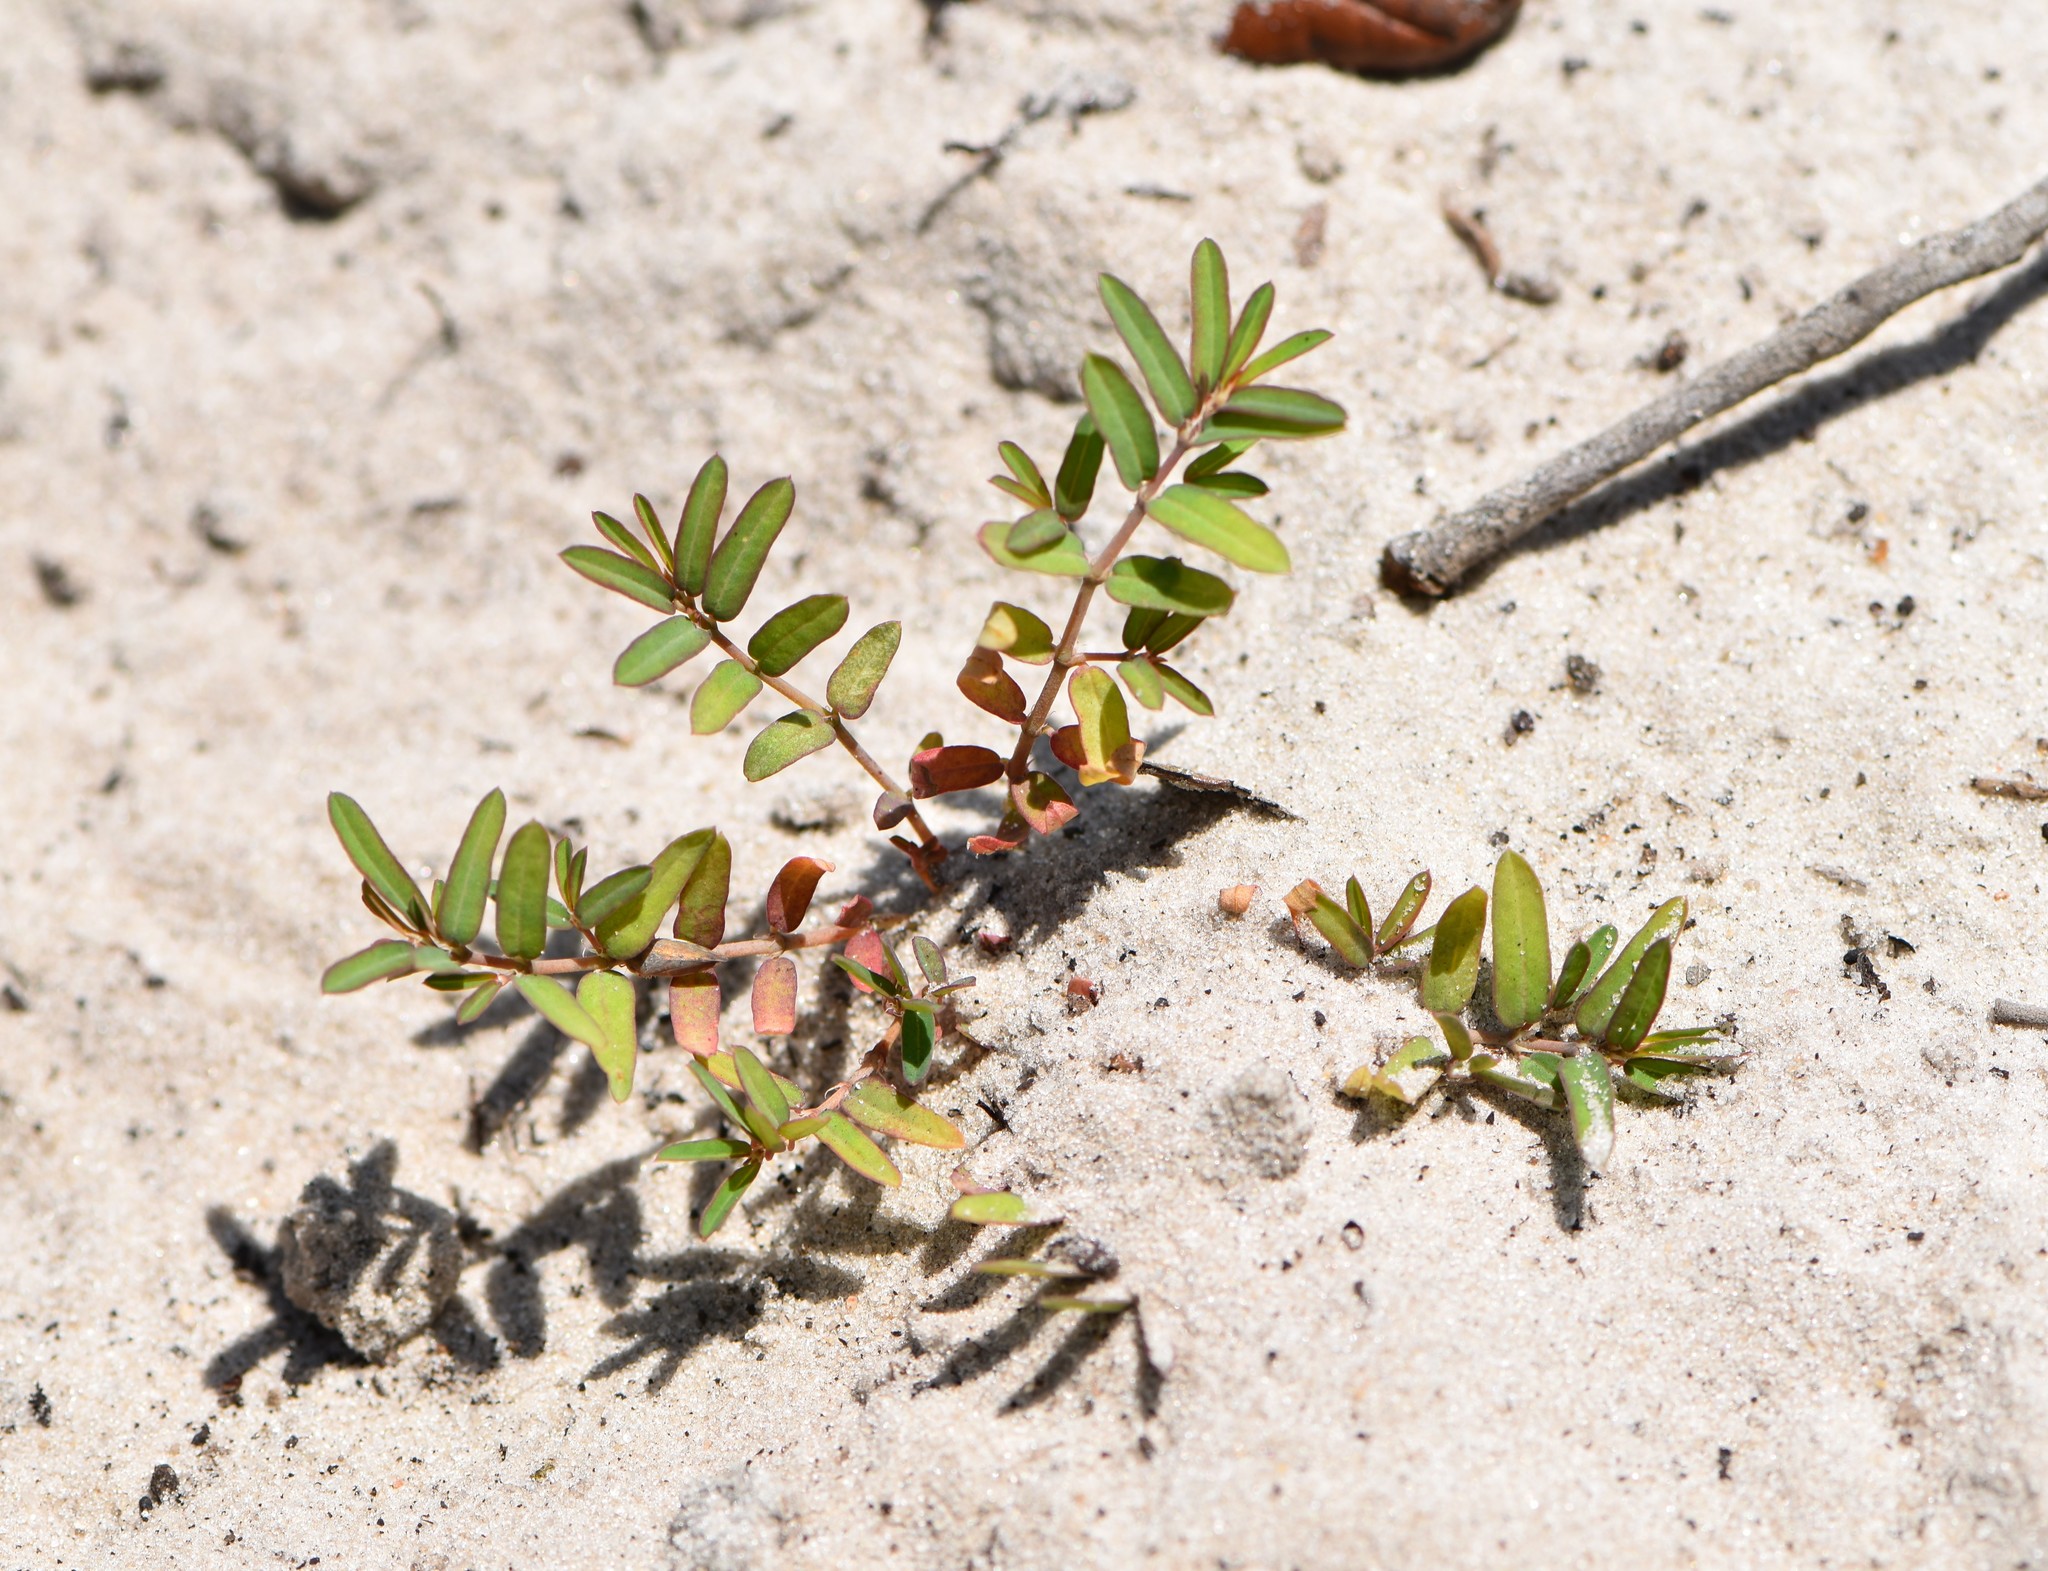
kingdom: Plantae
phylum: Tracheophyta
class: Magnoliopsida
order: Malpighiales
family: Euphorbiaceae
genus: Euphorbia
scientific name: Euphorbia cumulicola
